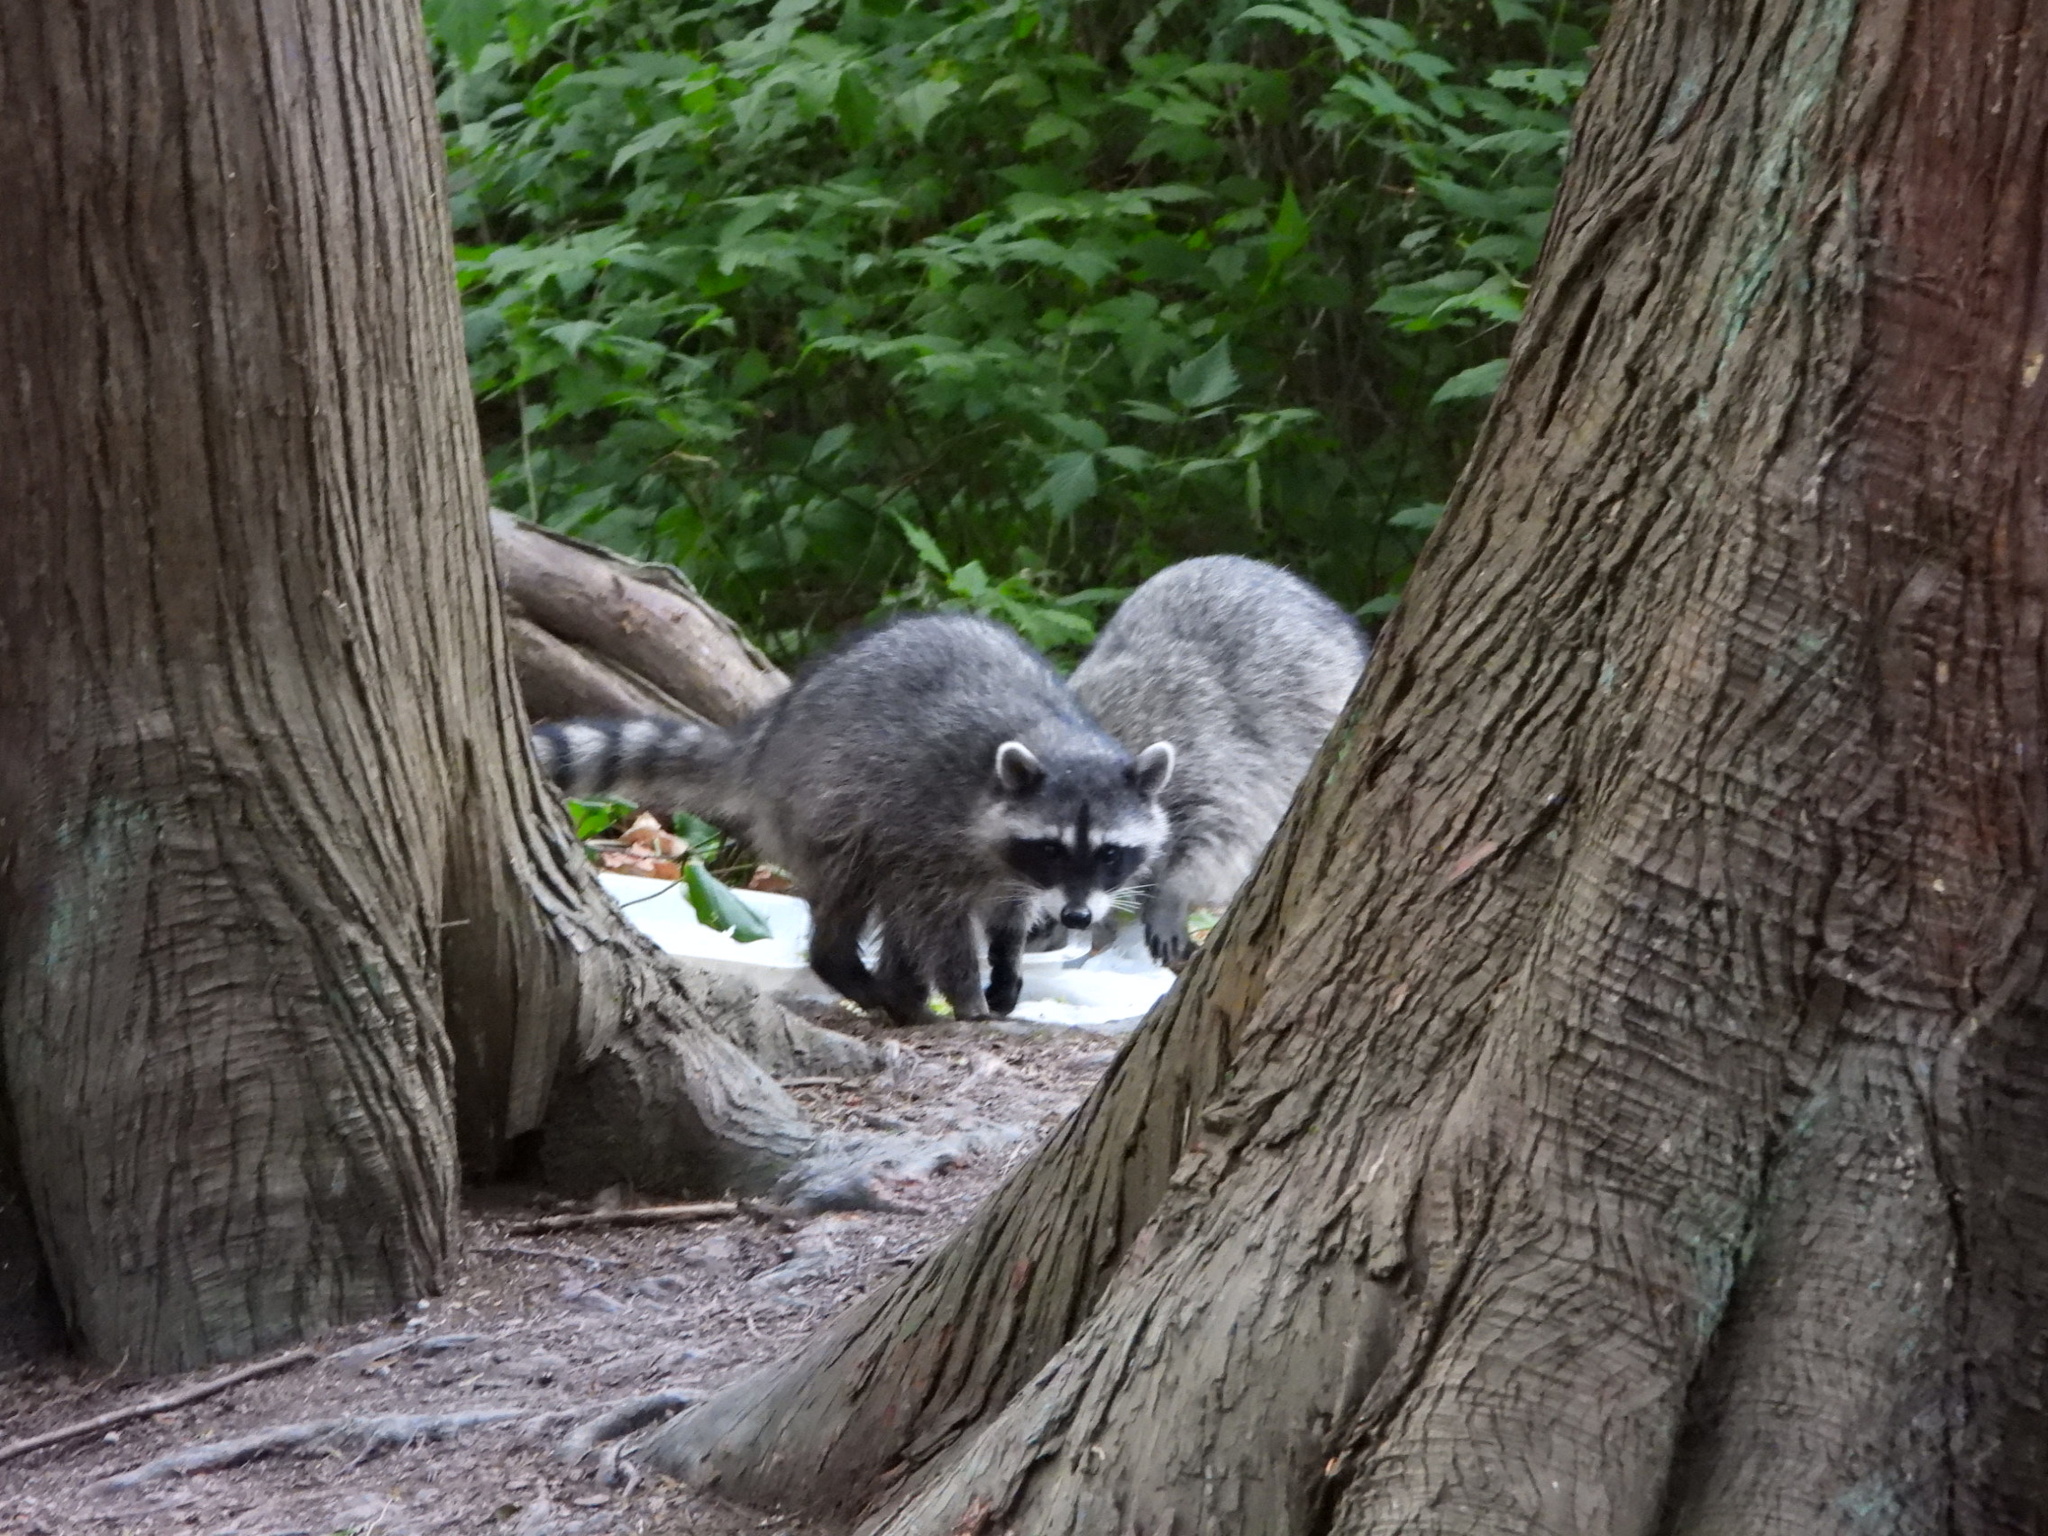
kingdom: Animalia
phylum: Chordata
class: Mammalia
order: Carnivora
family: Procyonidae
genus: Procyon
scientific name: Procyon lotor
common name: Raccoon
